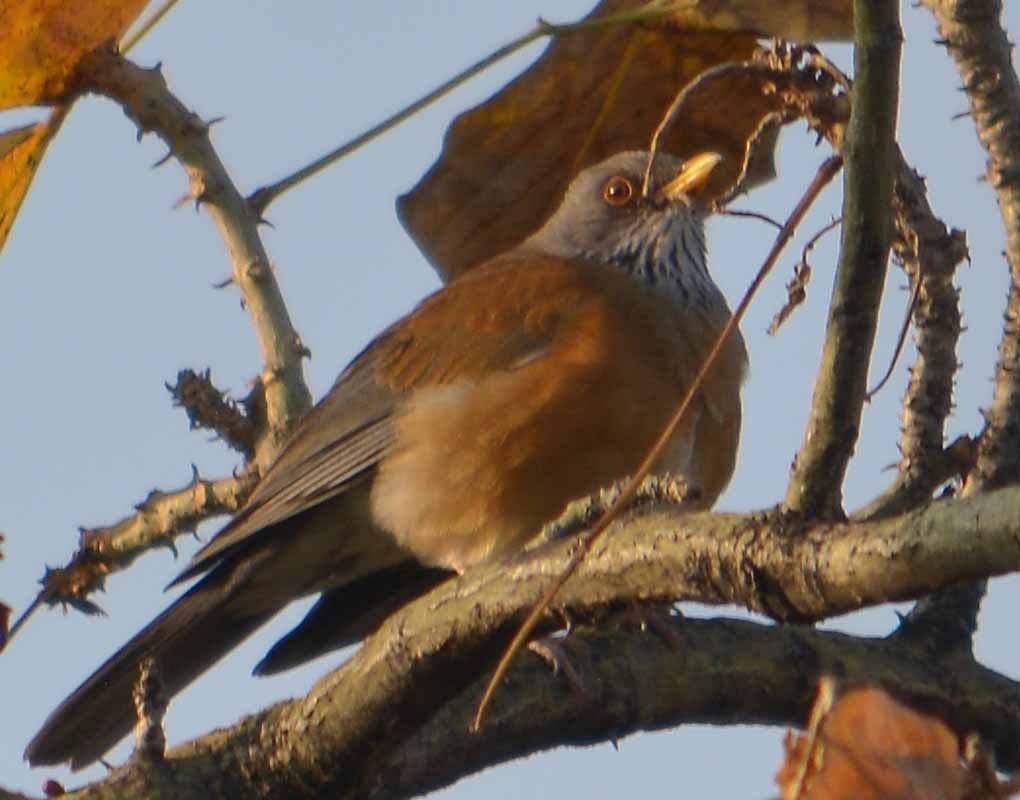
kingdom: Animalia
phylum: Chordata
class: Aves
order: Passeriformes
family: Turdidae
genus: Turdus
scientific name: Turdus rufopalliatus
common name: Rufous-backed robin
